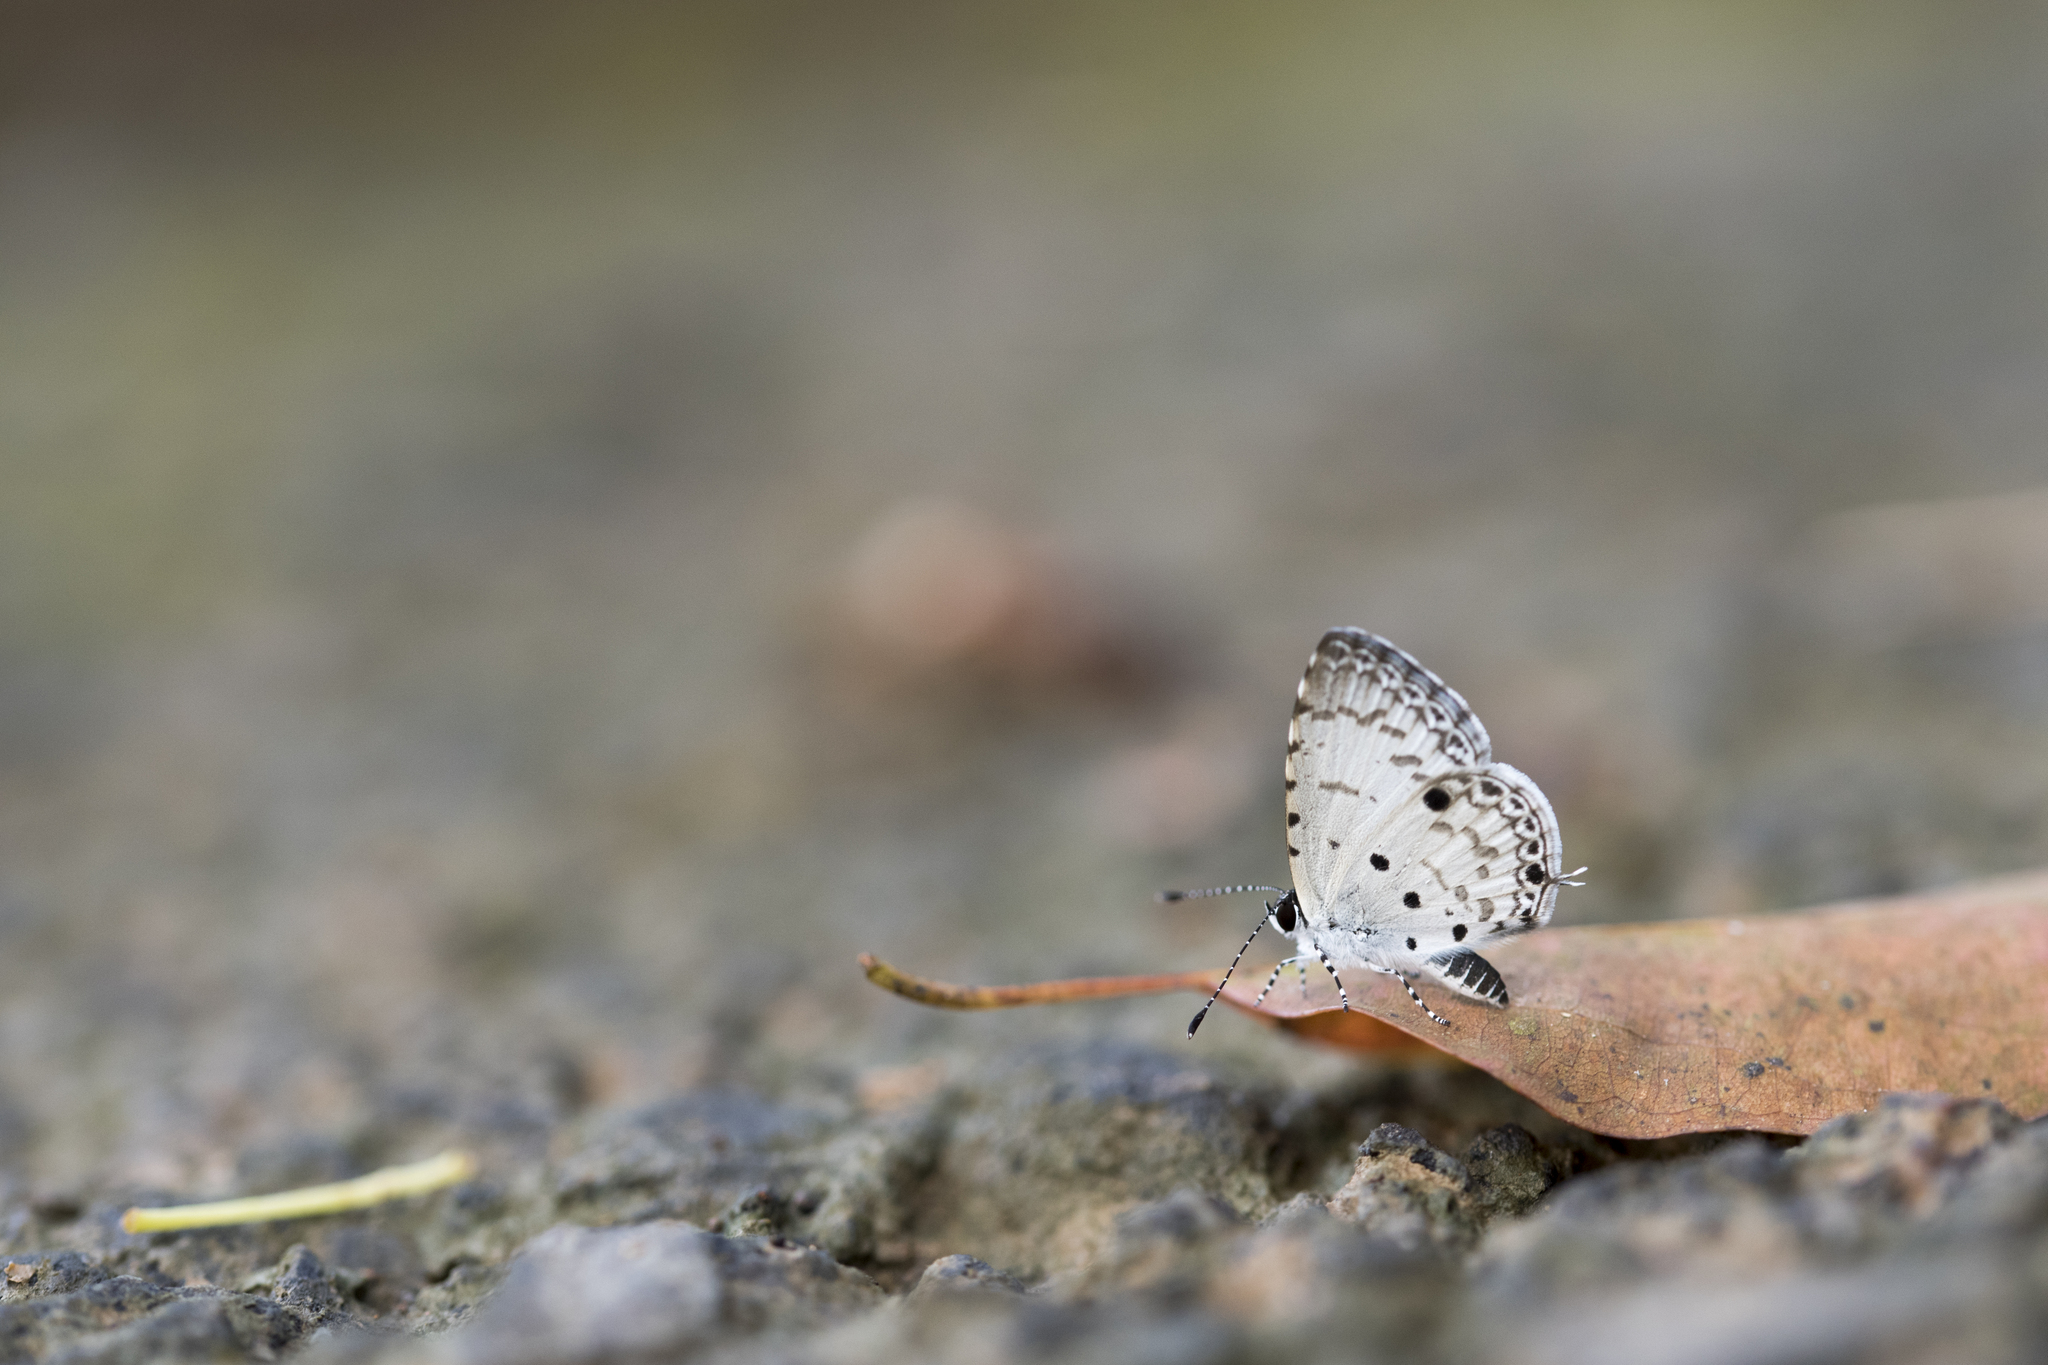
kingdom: Animalia
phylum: Arthropoda
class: Insecta
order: Lepidoptera
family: Lycaenidae
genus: Megisba
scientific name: Megisba malaya
